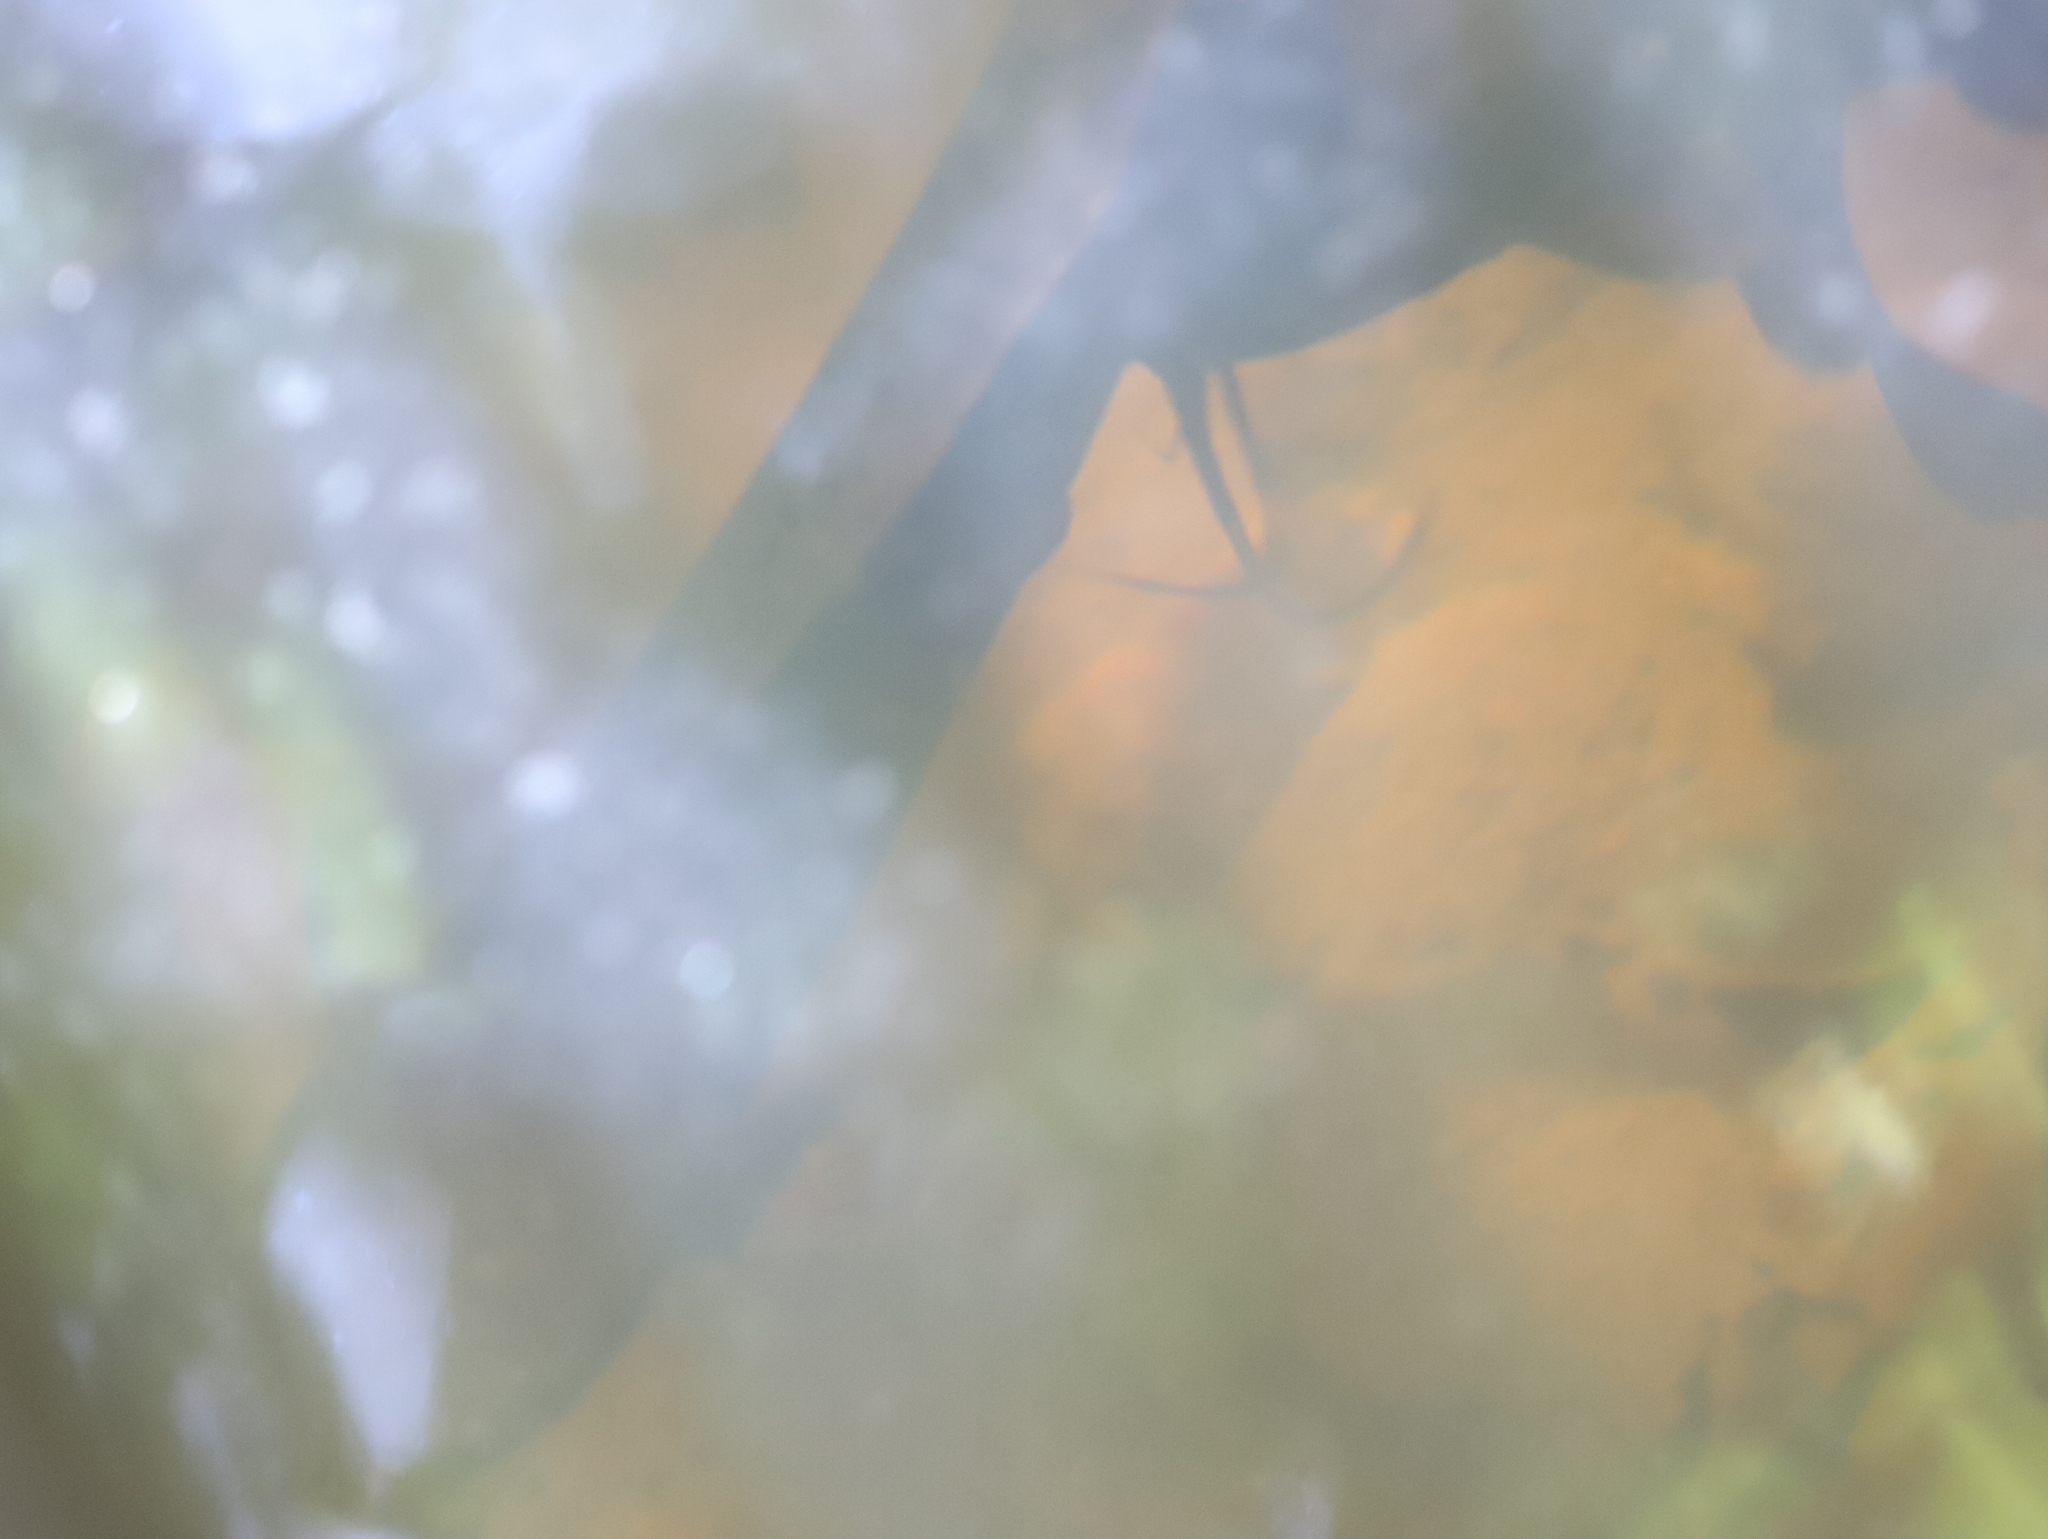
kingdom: Animalia
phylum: Chordata
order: Siluriformes
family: Clariidae
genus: Clarias
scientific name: Clarias brachysoma
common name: Sri lanka walking catfish
